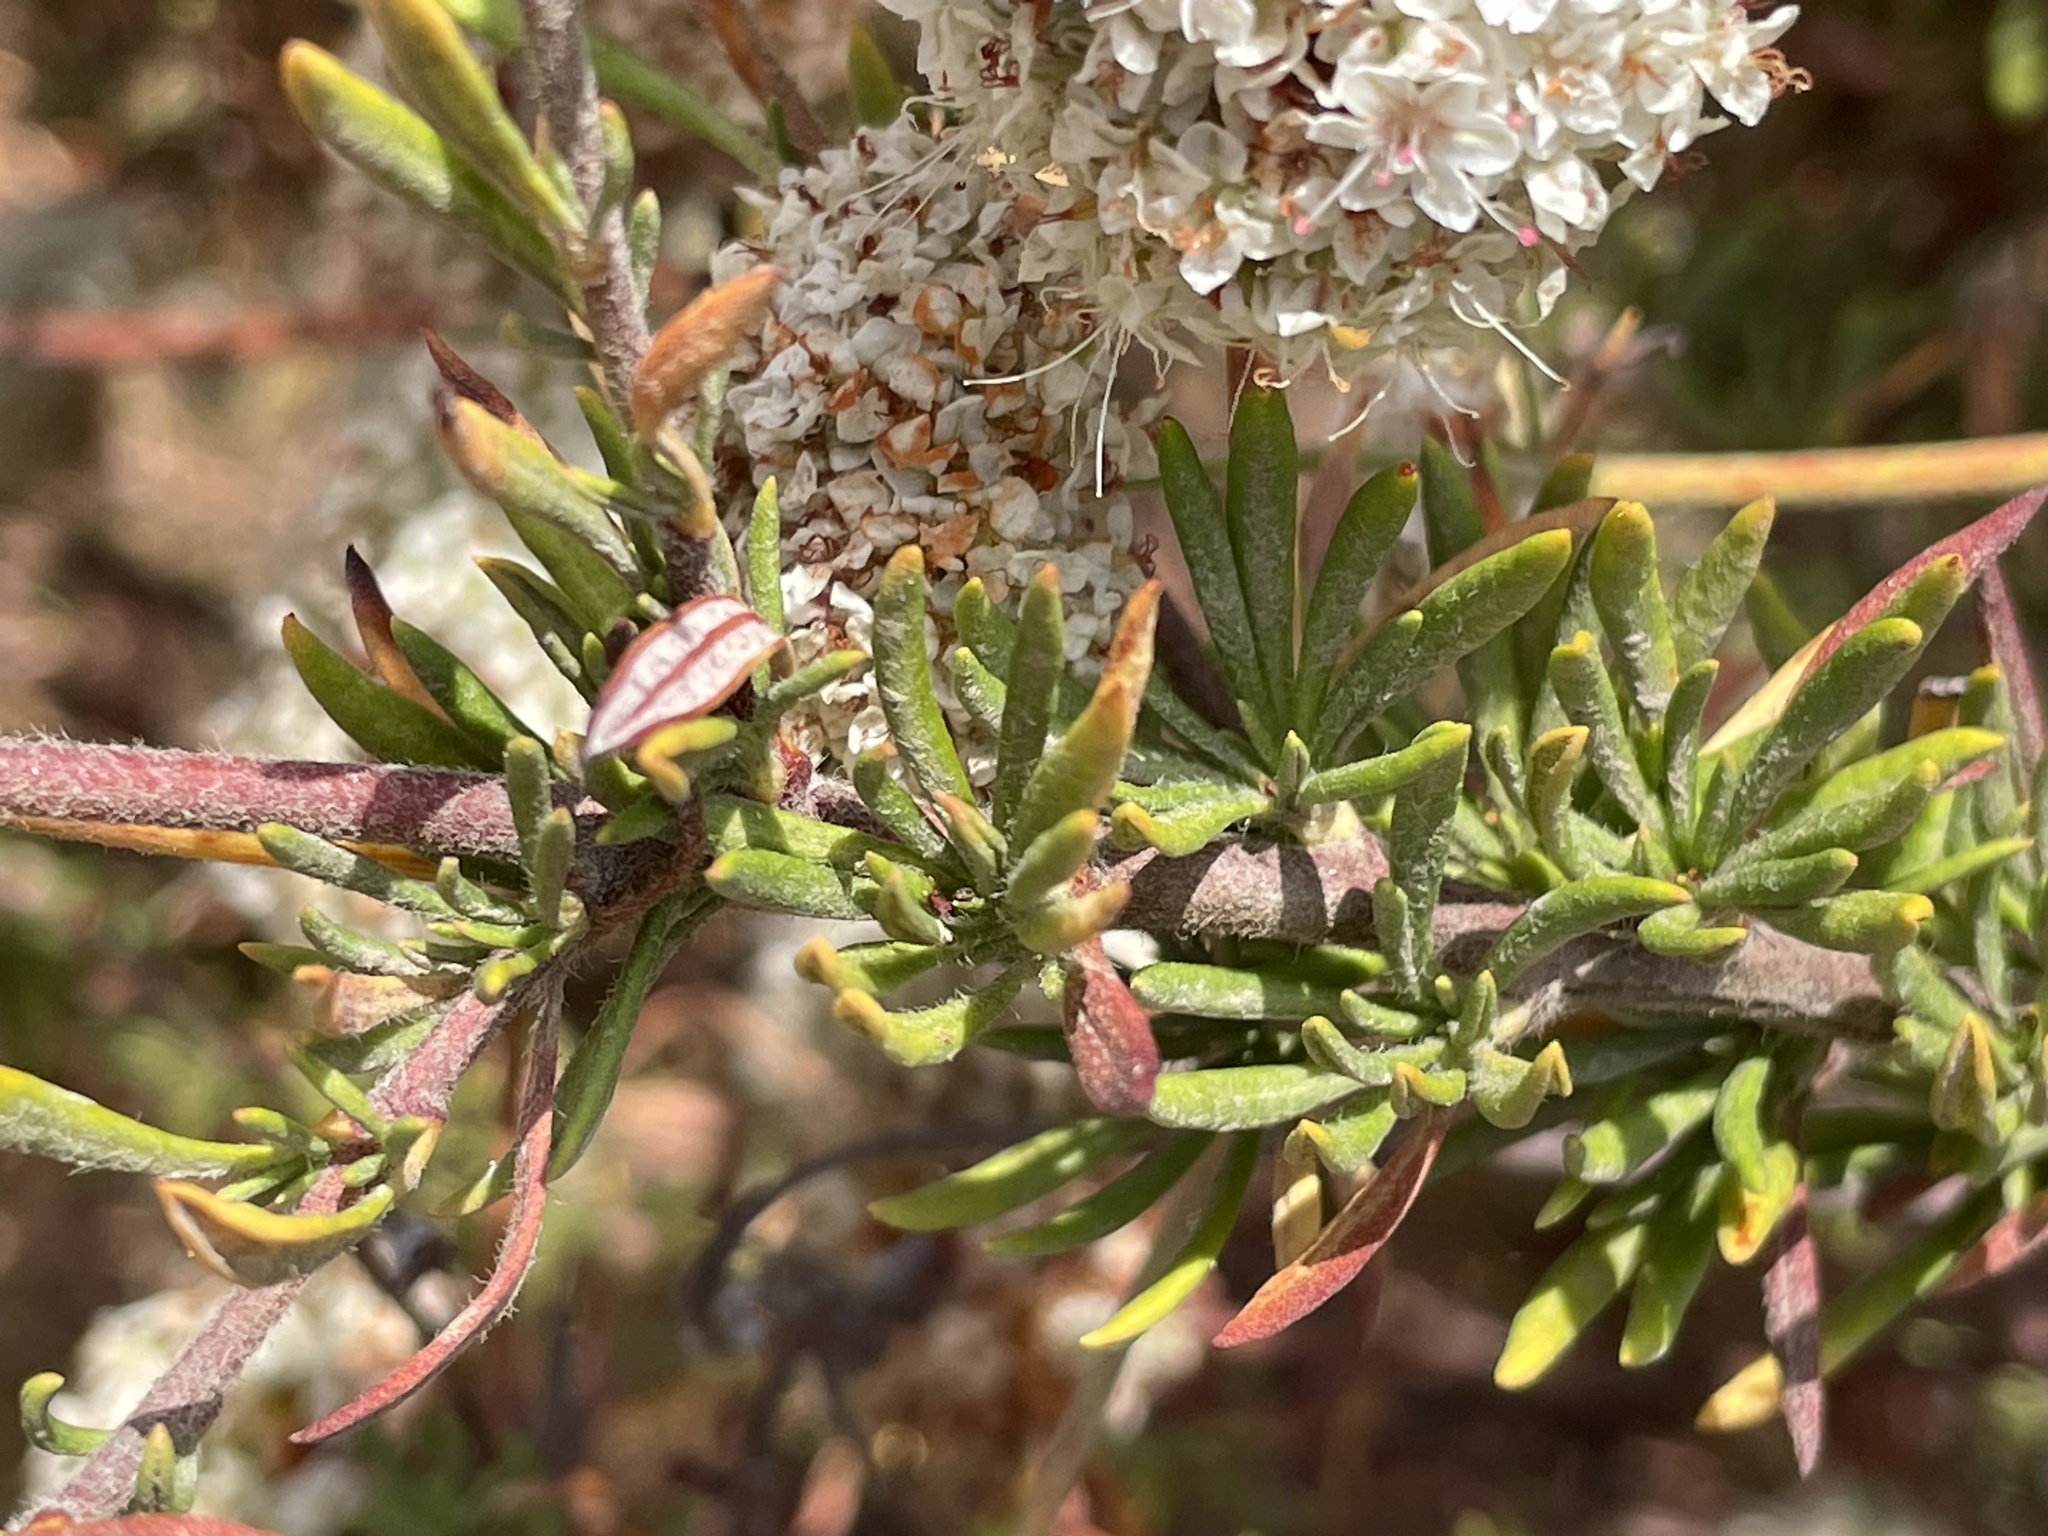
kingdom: Plantae
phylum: Tracheophyta
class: Magnoliopsida
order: Caryophyllales
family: Polygonaceae
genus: Eriogonum
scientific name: Eriogonum fasciculatum
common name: California wild buckwheat
